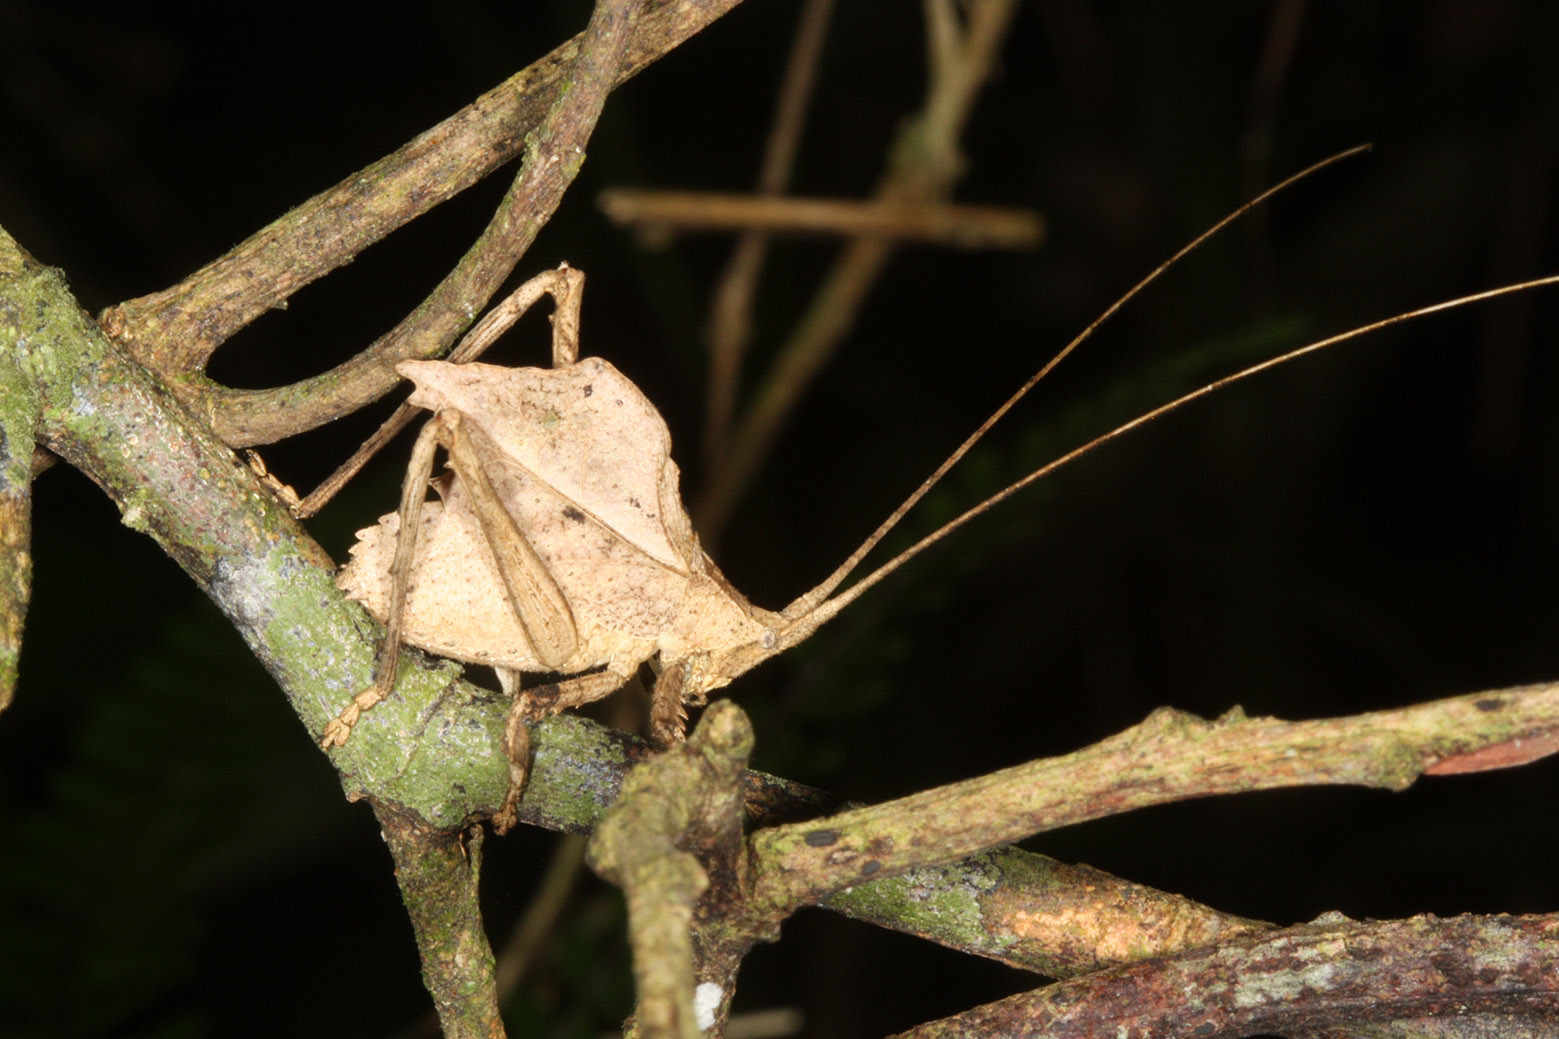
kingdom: Animalia
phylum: Arthropoda
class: Insecta
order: Orthoptera
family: Tettigoniidae
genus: Typophyllum
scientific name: Typophyllum inflatum
